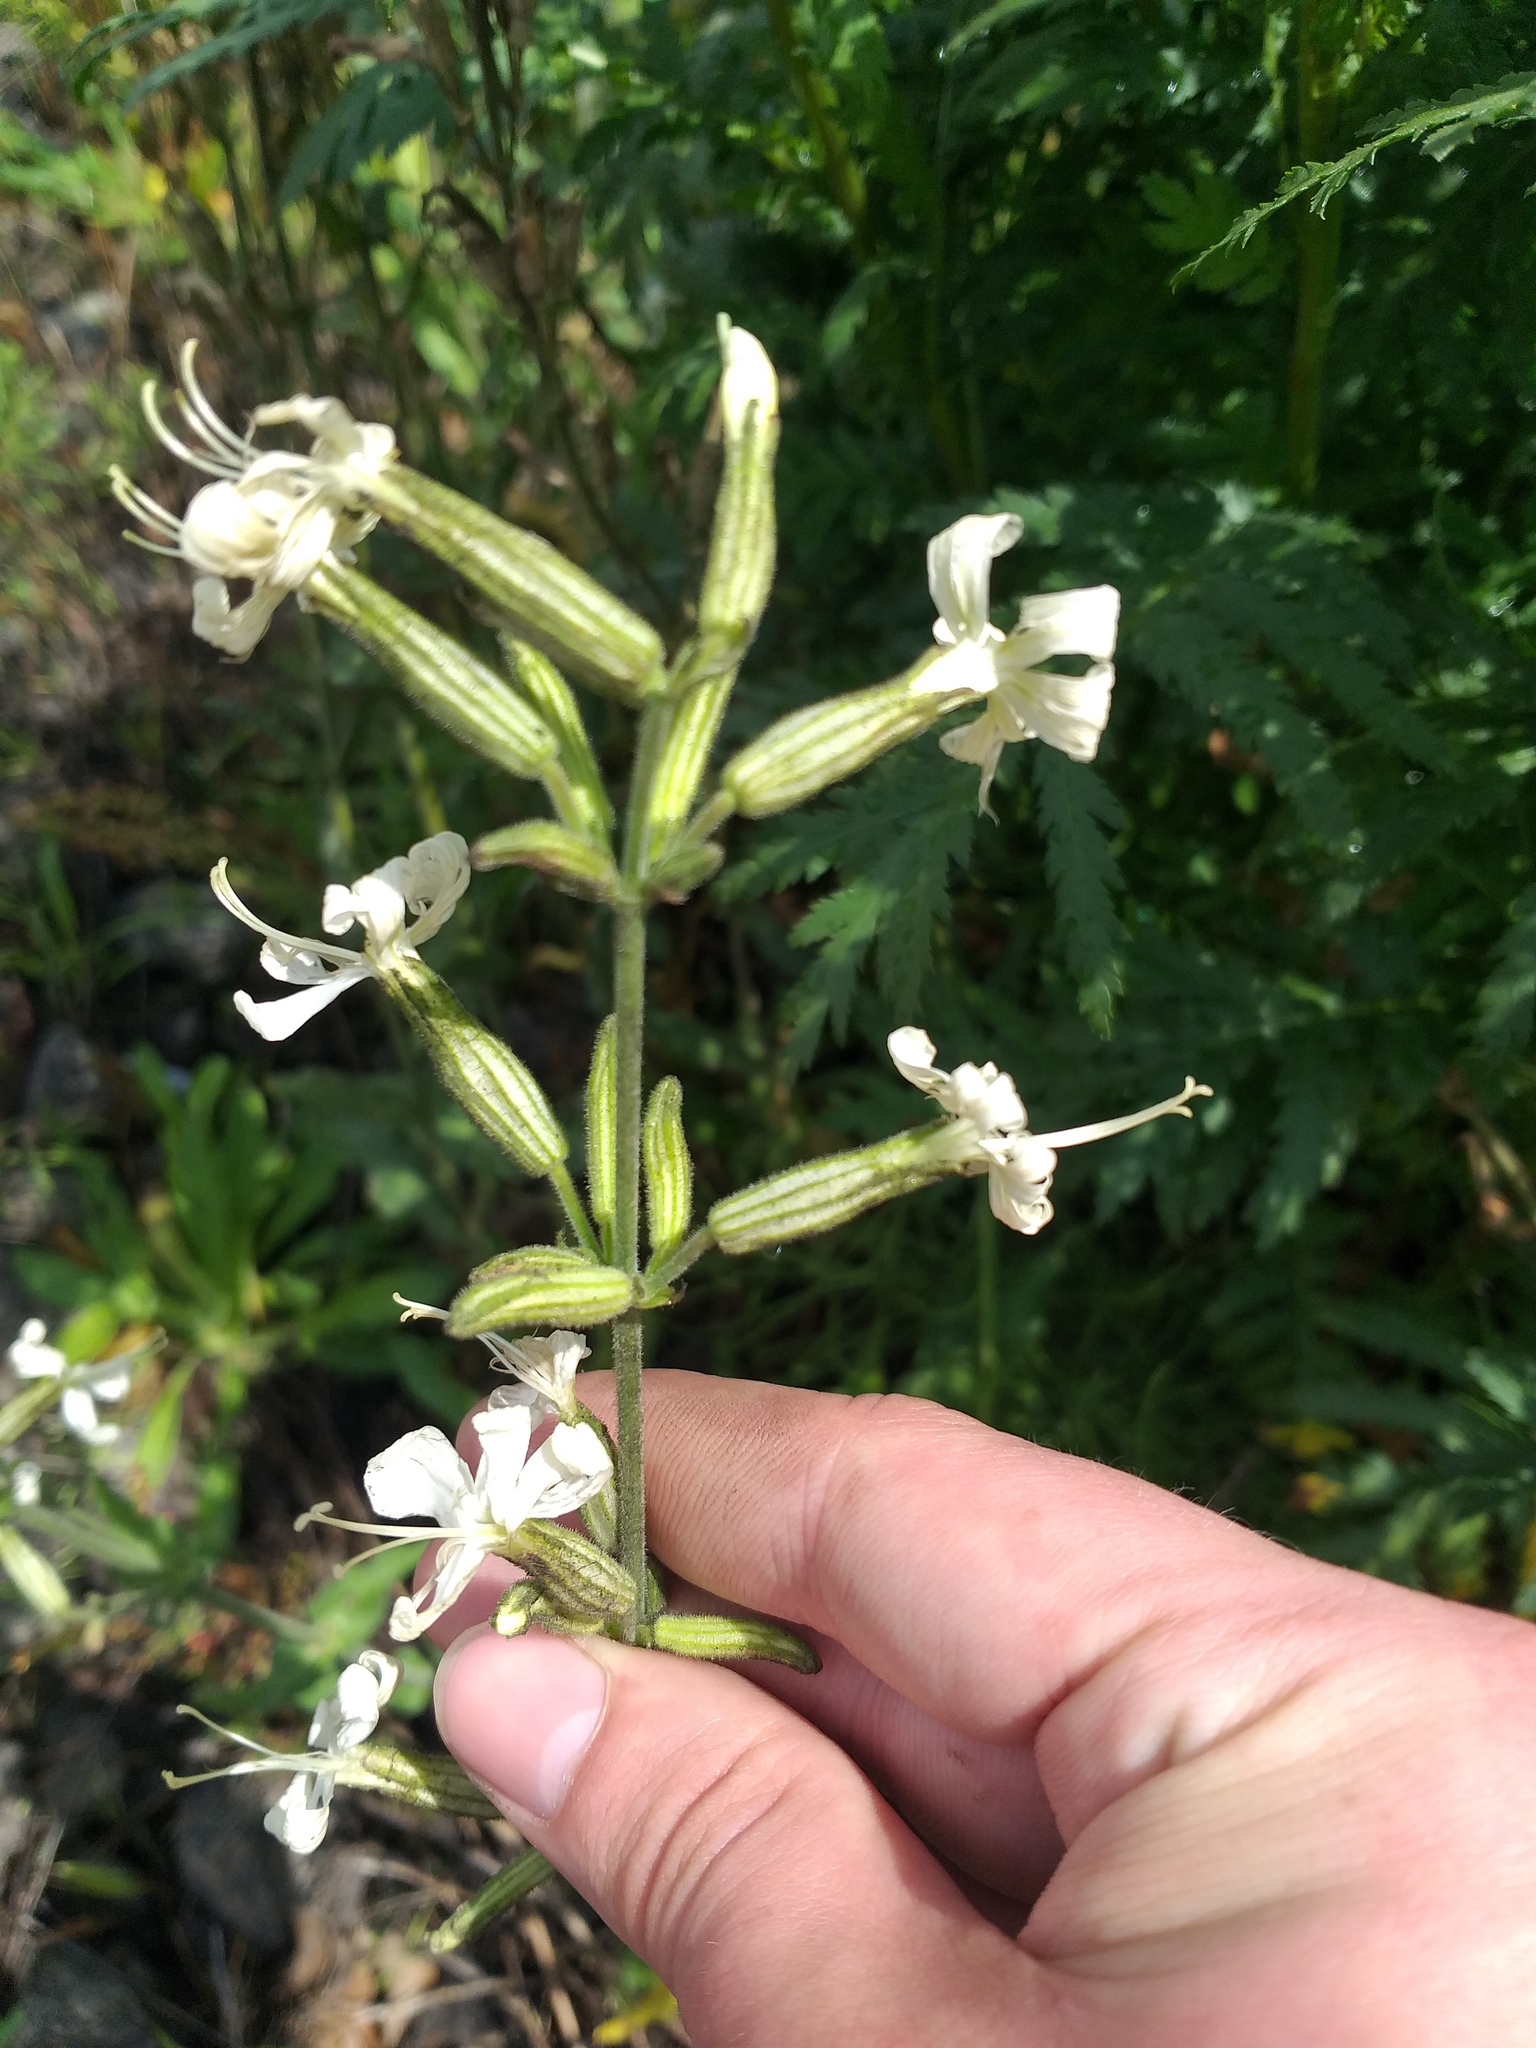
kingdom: Plantae
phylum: Tracheophyta
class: Magnoliopsida
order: Caryophyllales
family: Caryophyllaceae
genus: Silene
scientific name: Silene viscosa
